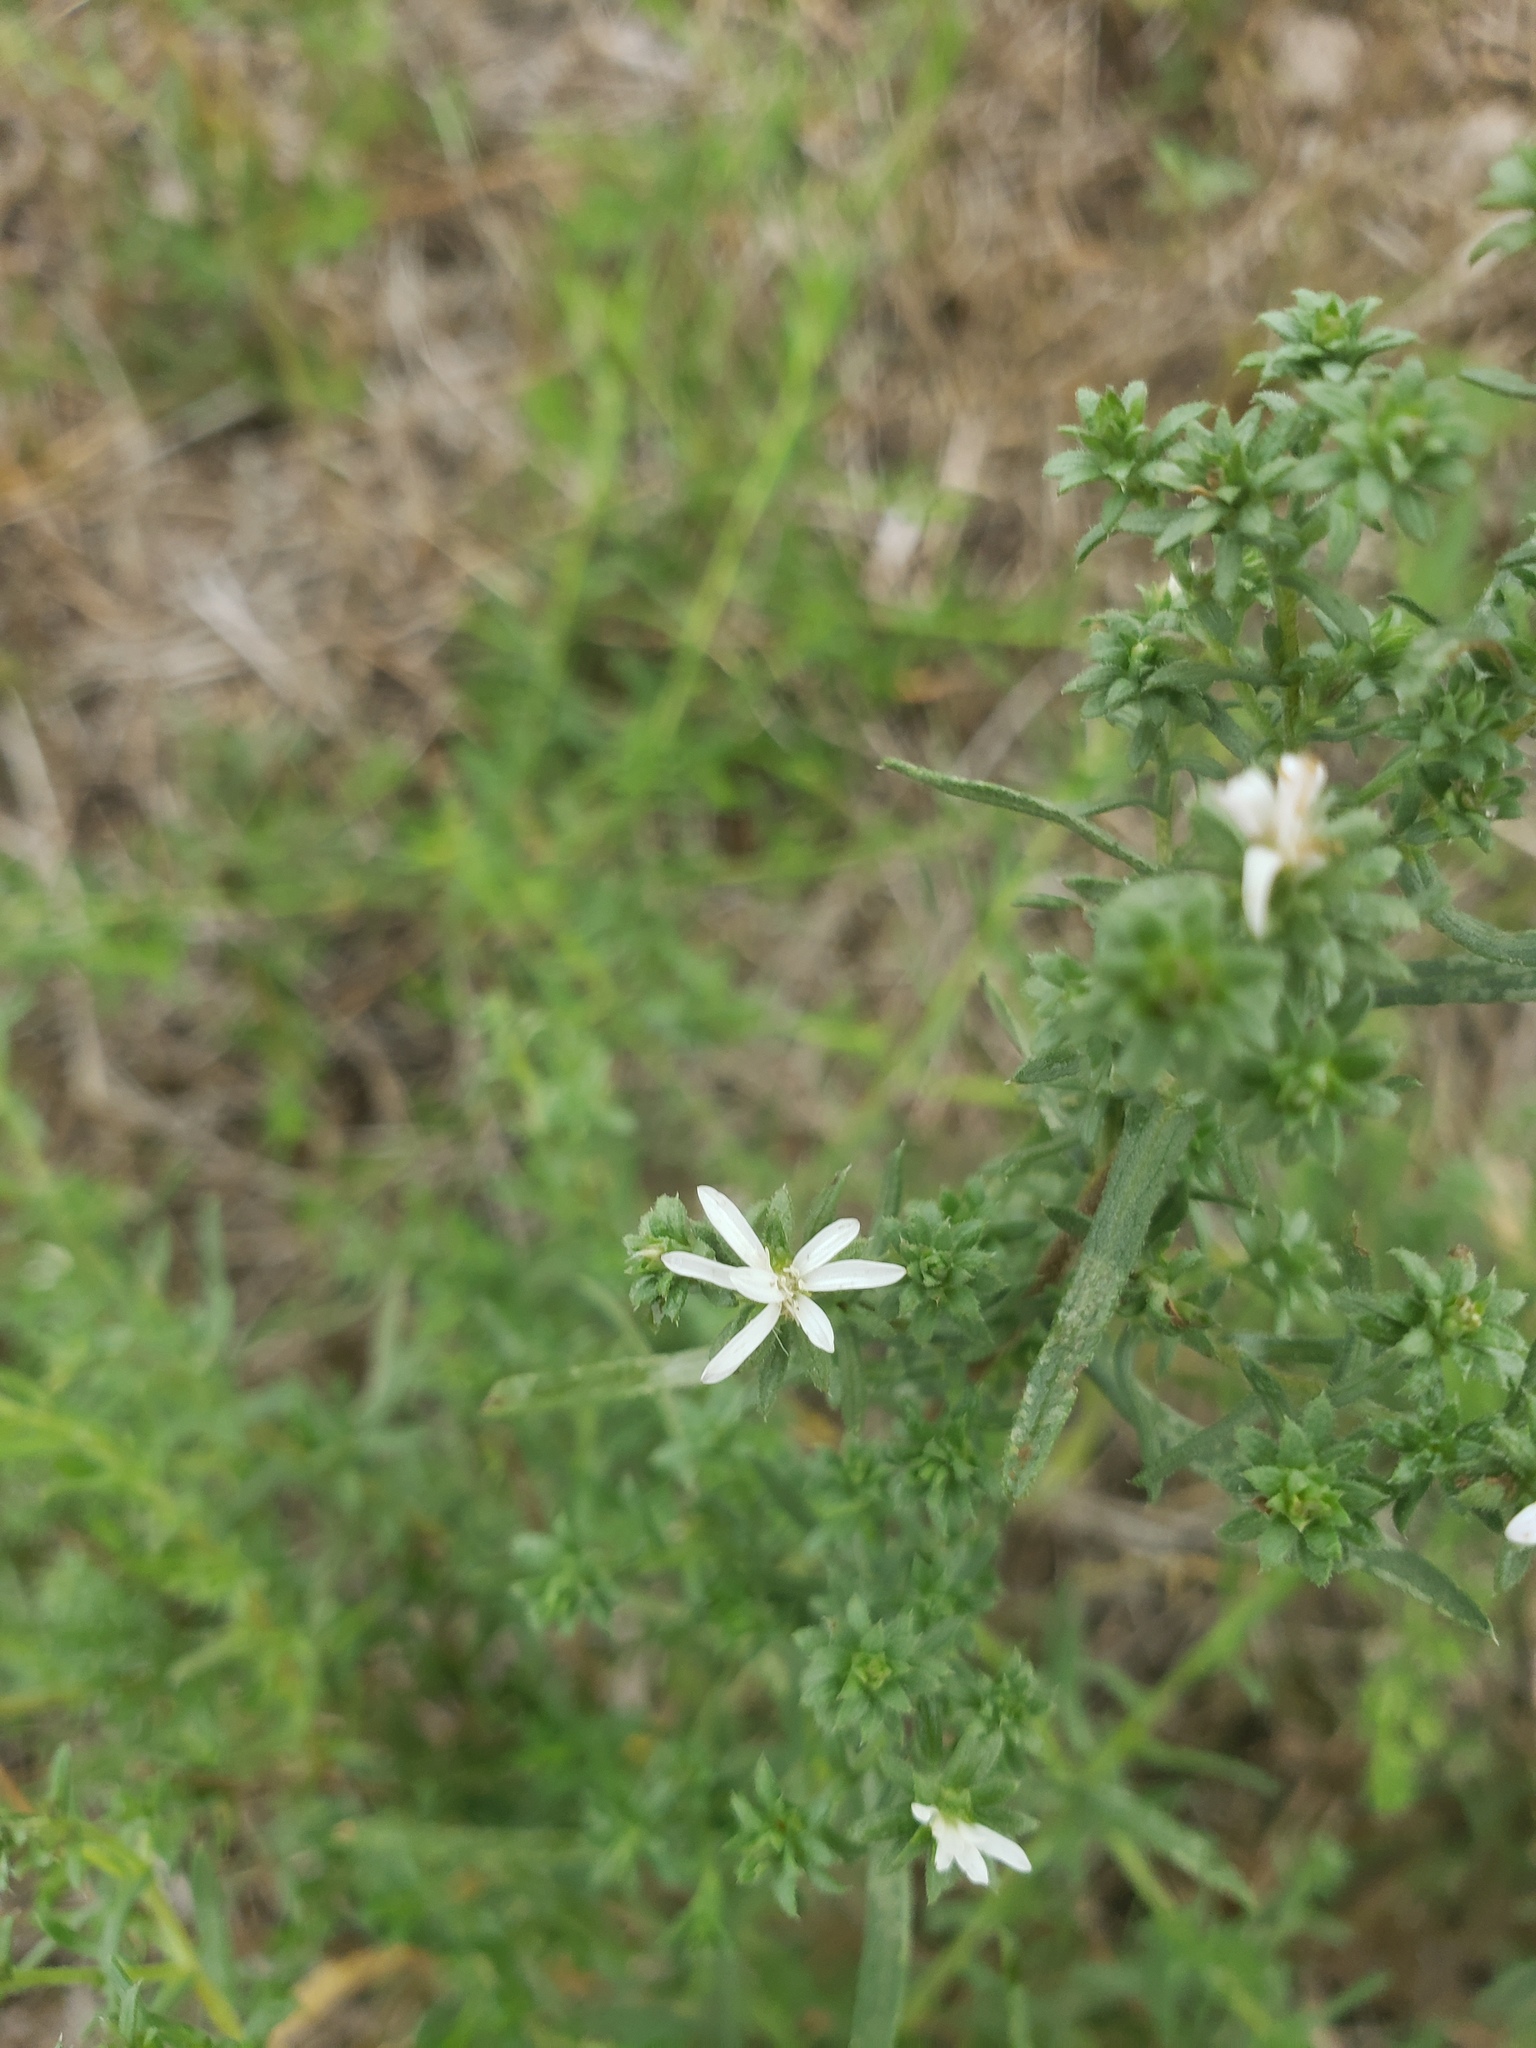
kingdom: Plantae
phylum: Tracheophyta
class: Magnoliopsida
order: Asterales
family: Asteraceae
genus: Symphyotrichum
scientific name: Symphyotrichum ericoides
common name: Heath aster
